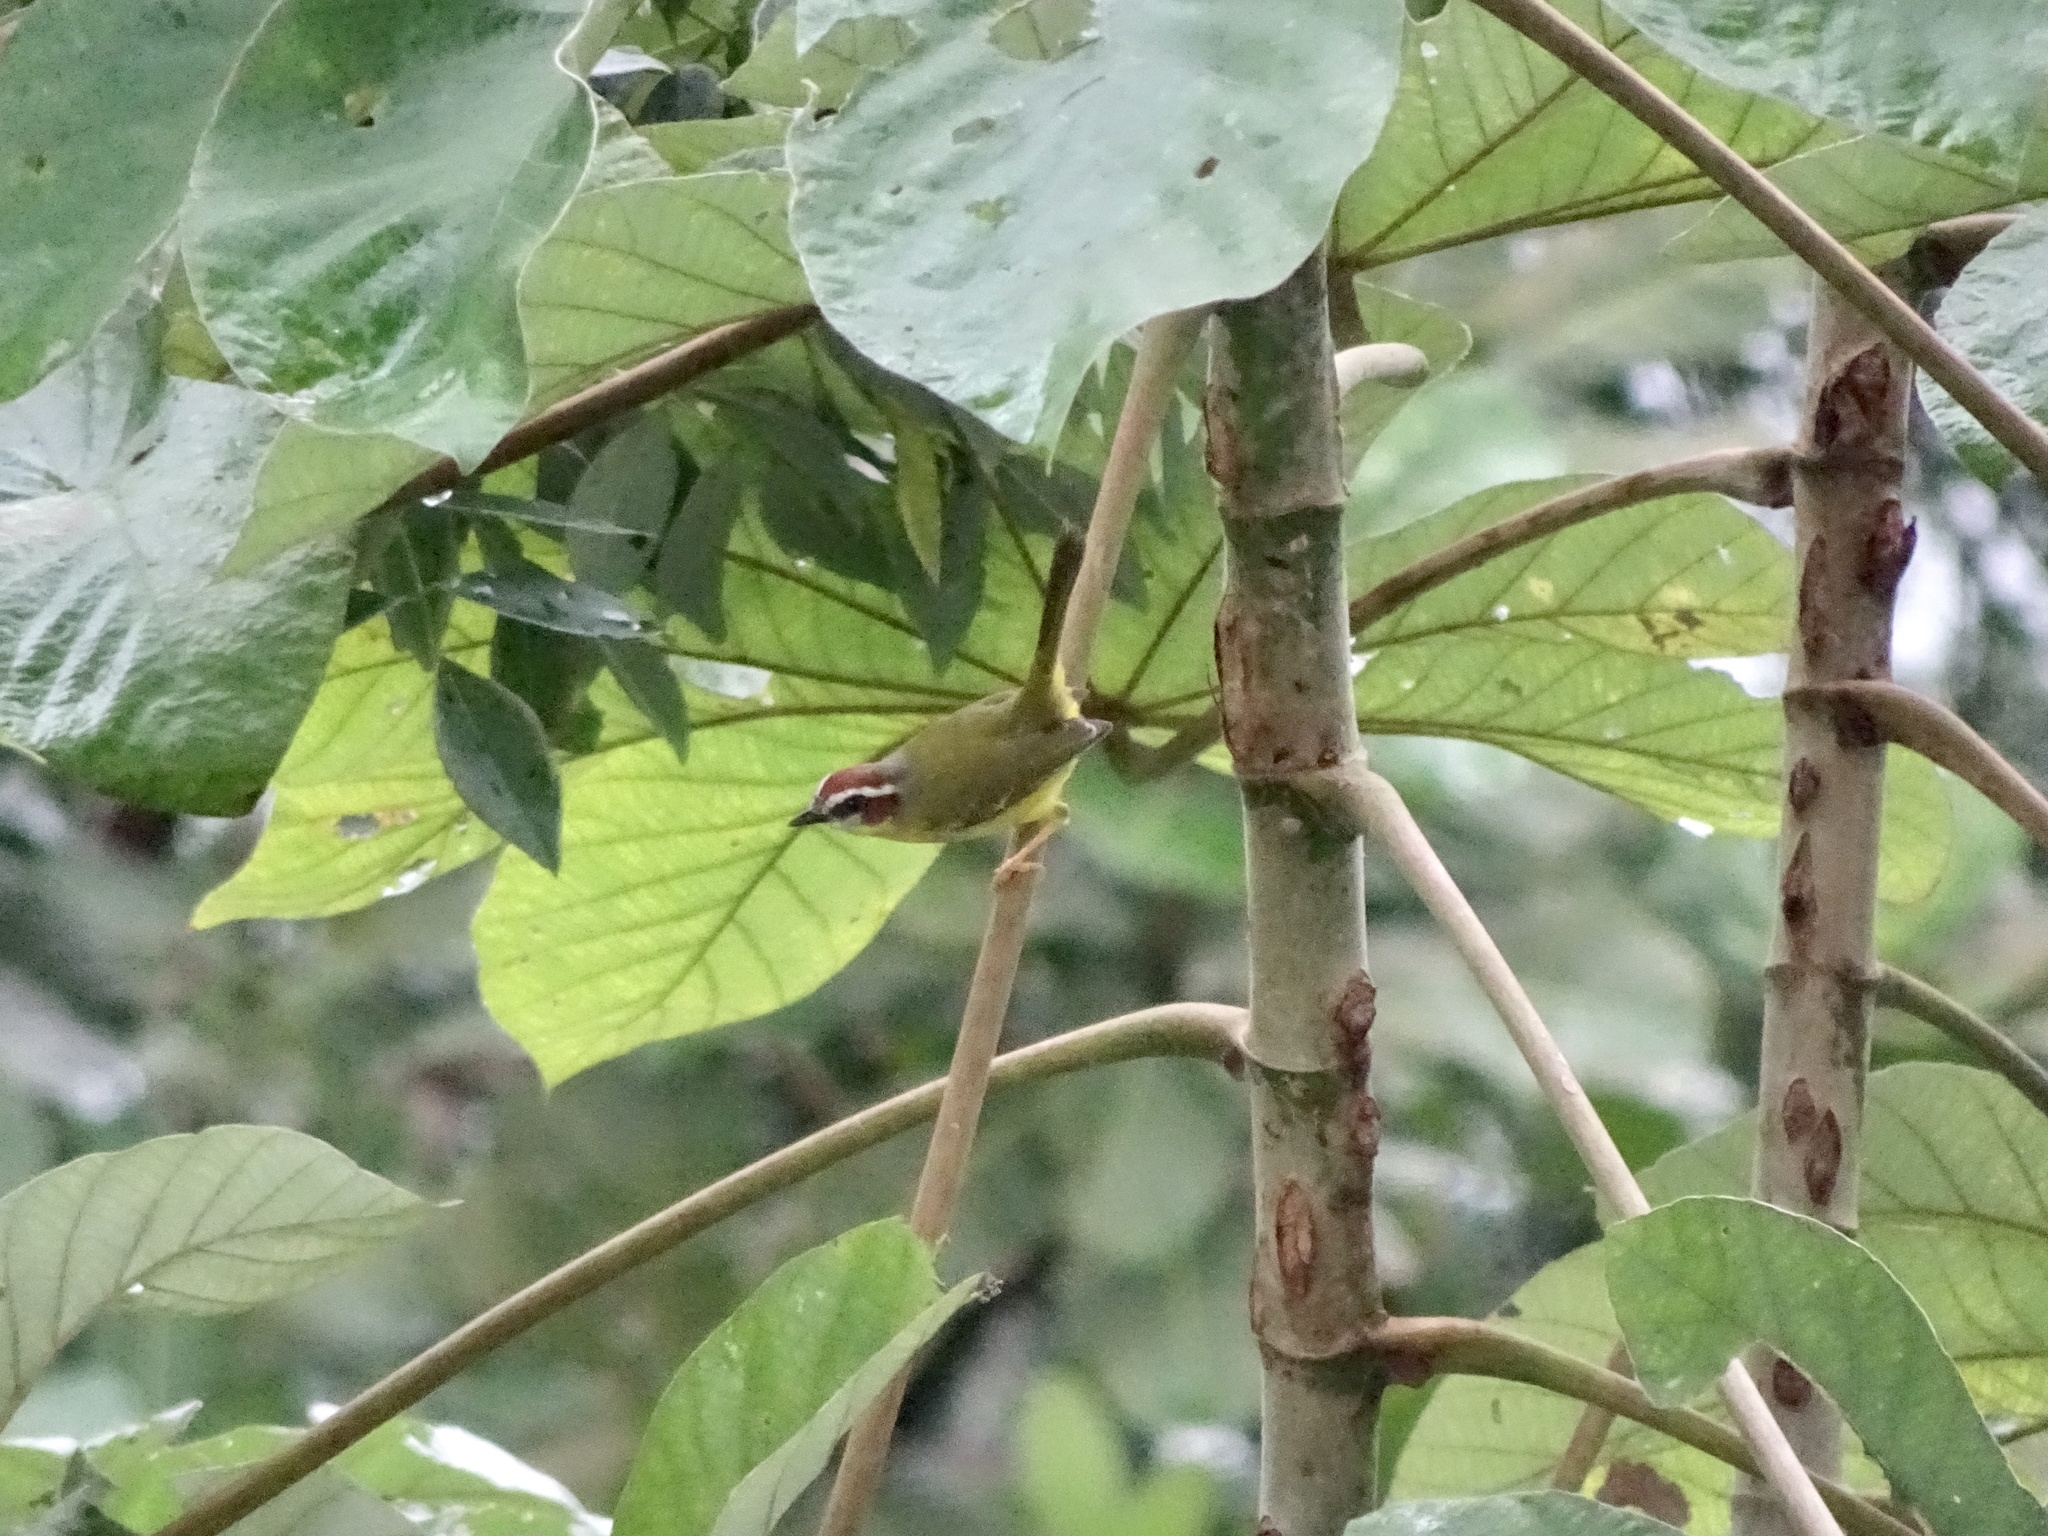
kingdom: Animalia
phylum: Chordata
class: Aves
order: Passeriformes
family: Parulidae
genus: Basileuterus
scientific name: Basileuterus rufifrons
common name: Rufous-capped warbler
